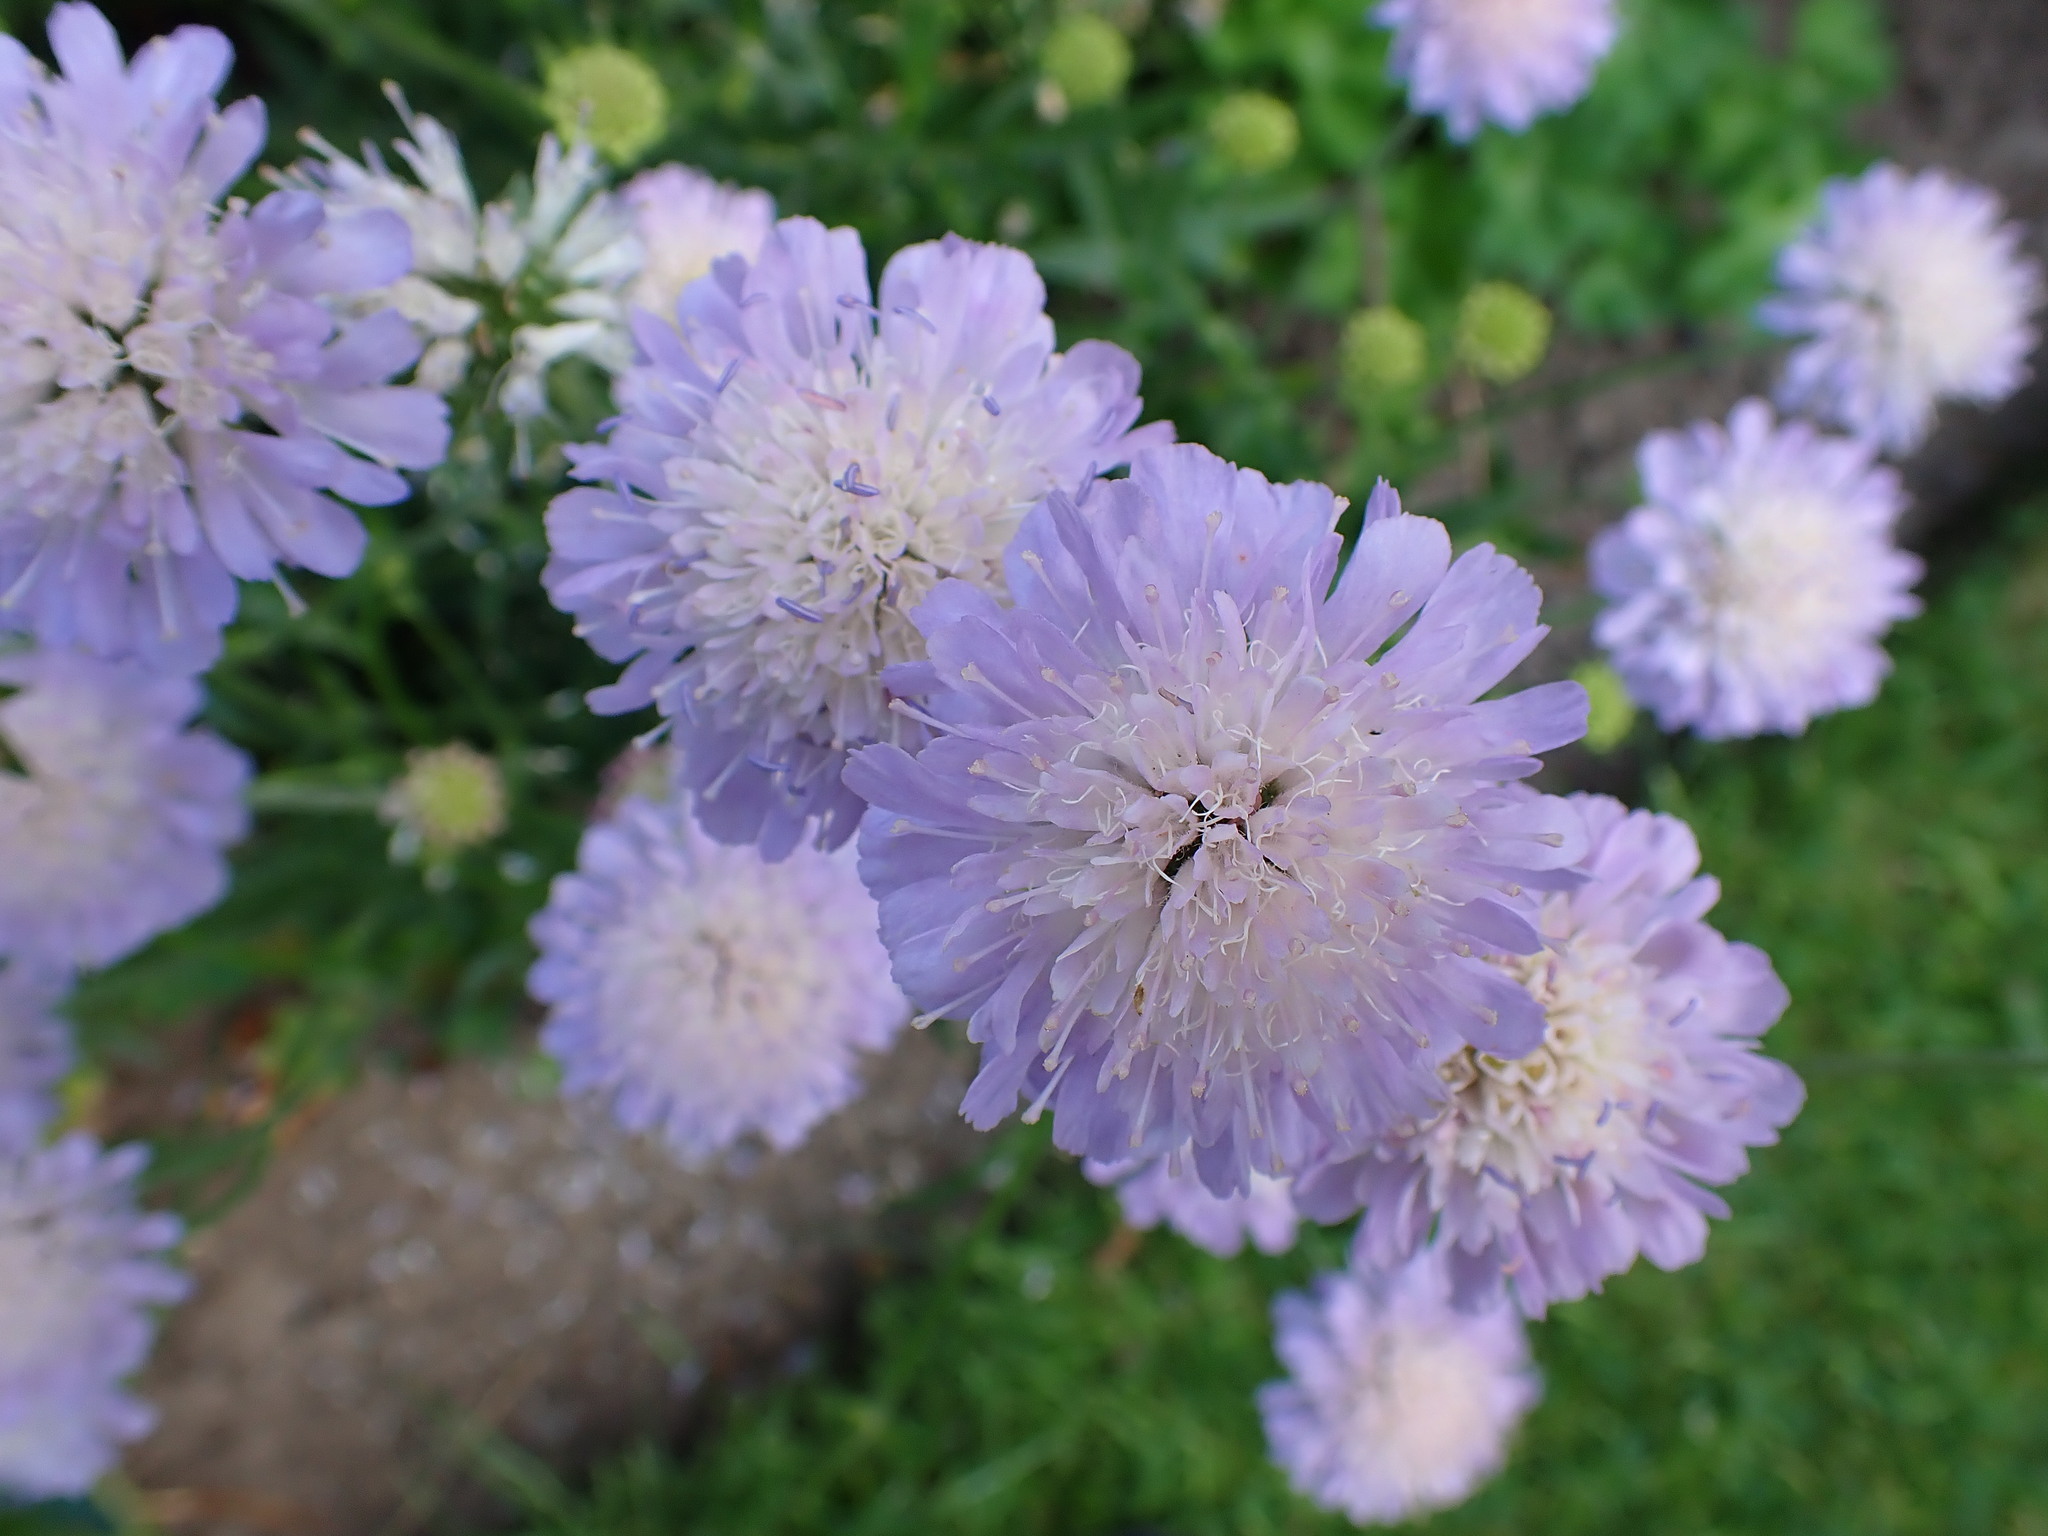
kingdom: Plantae
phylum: Tracheophyta
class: Magnoliopsida
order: Dipsacales
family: Caprifoliaceae
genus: Knautia
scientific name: Knautia arvensis
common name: Field scabiosa
